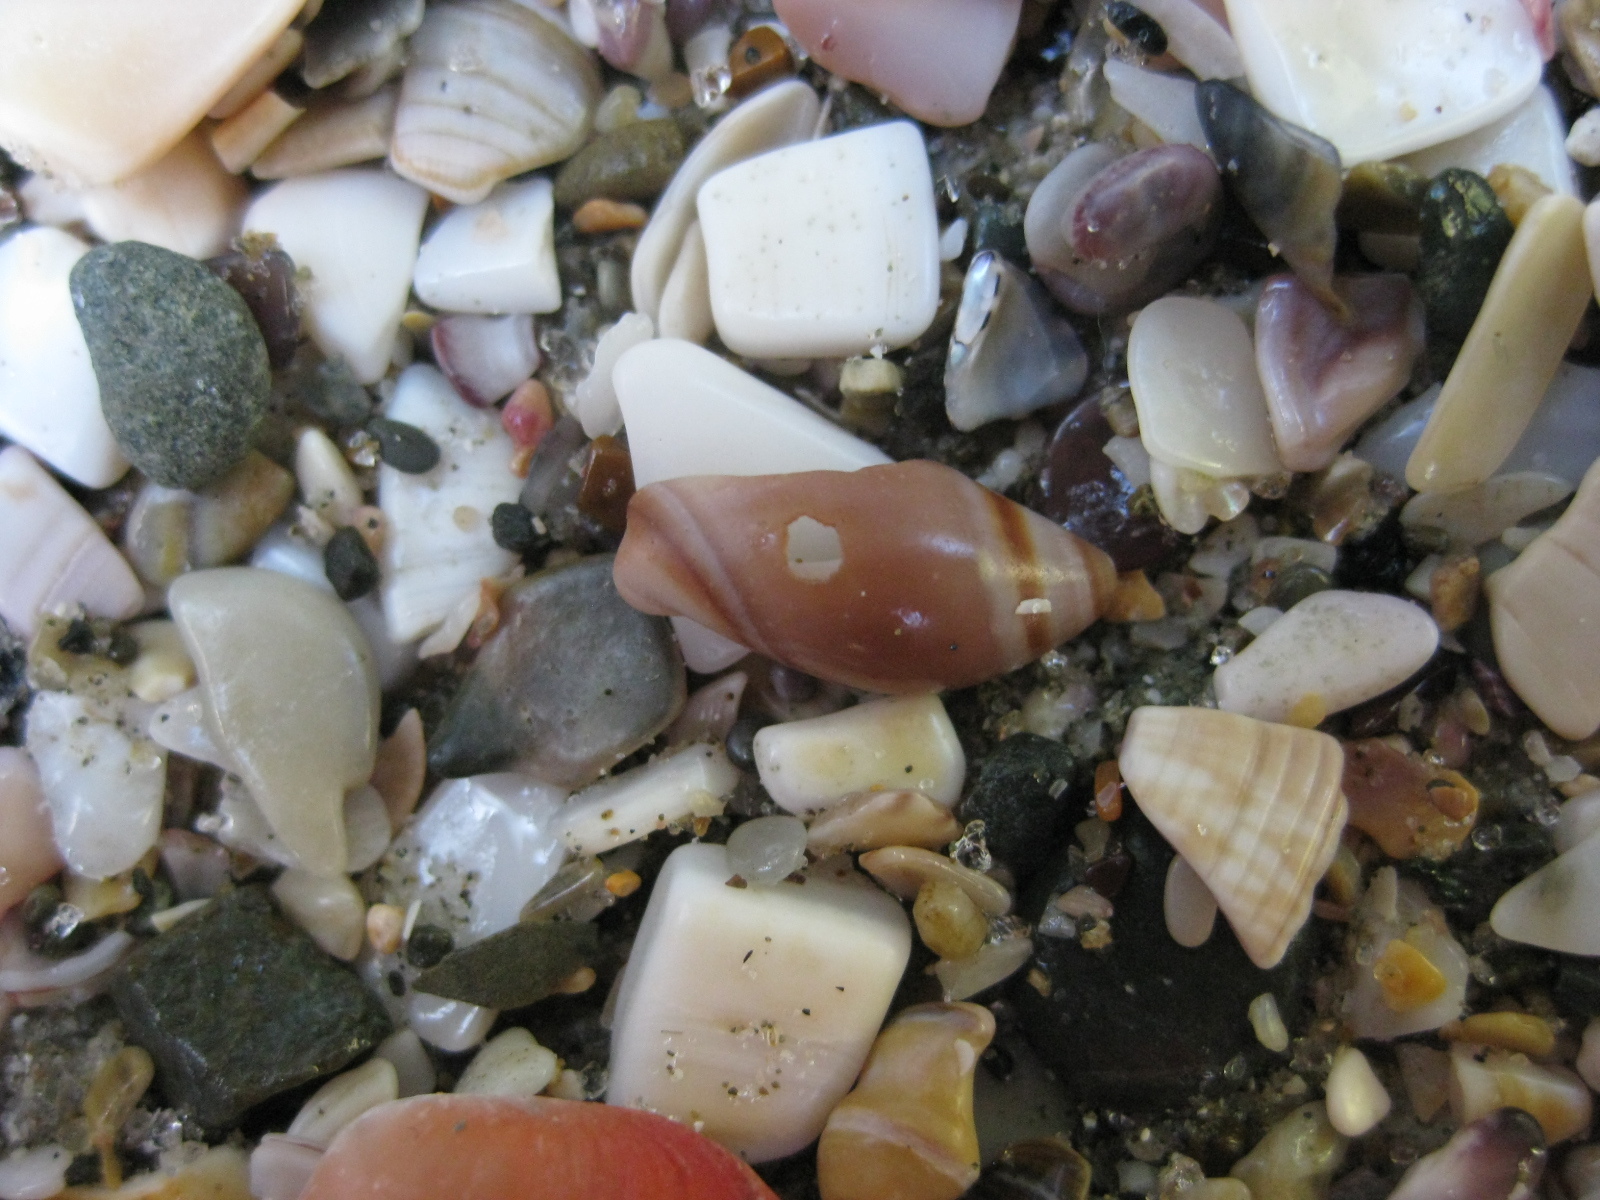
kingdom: Animalia
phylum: Mollusca
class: Gastropoda
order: Neogastropoda
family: Ancillariidae
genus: Amalda
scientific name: Amalda australis
